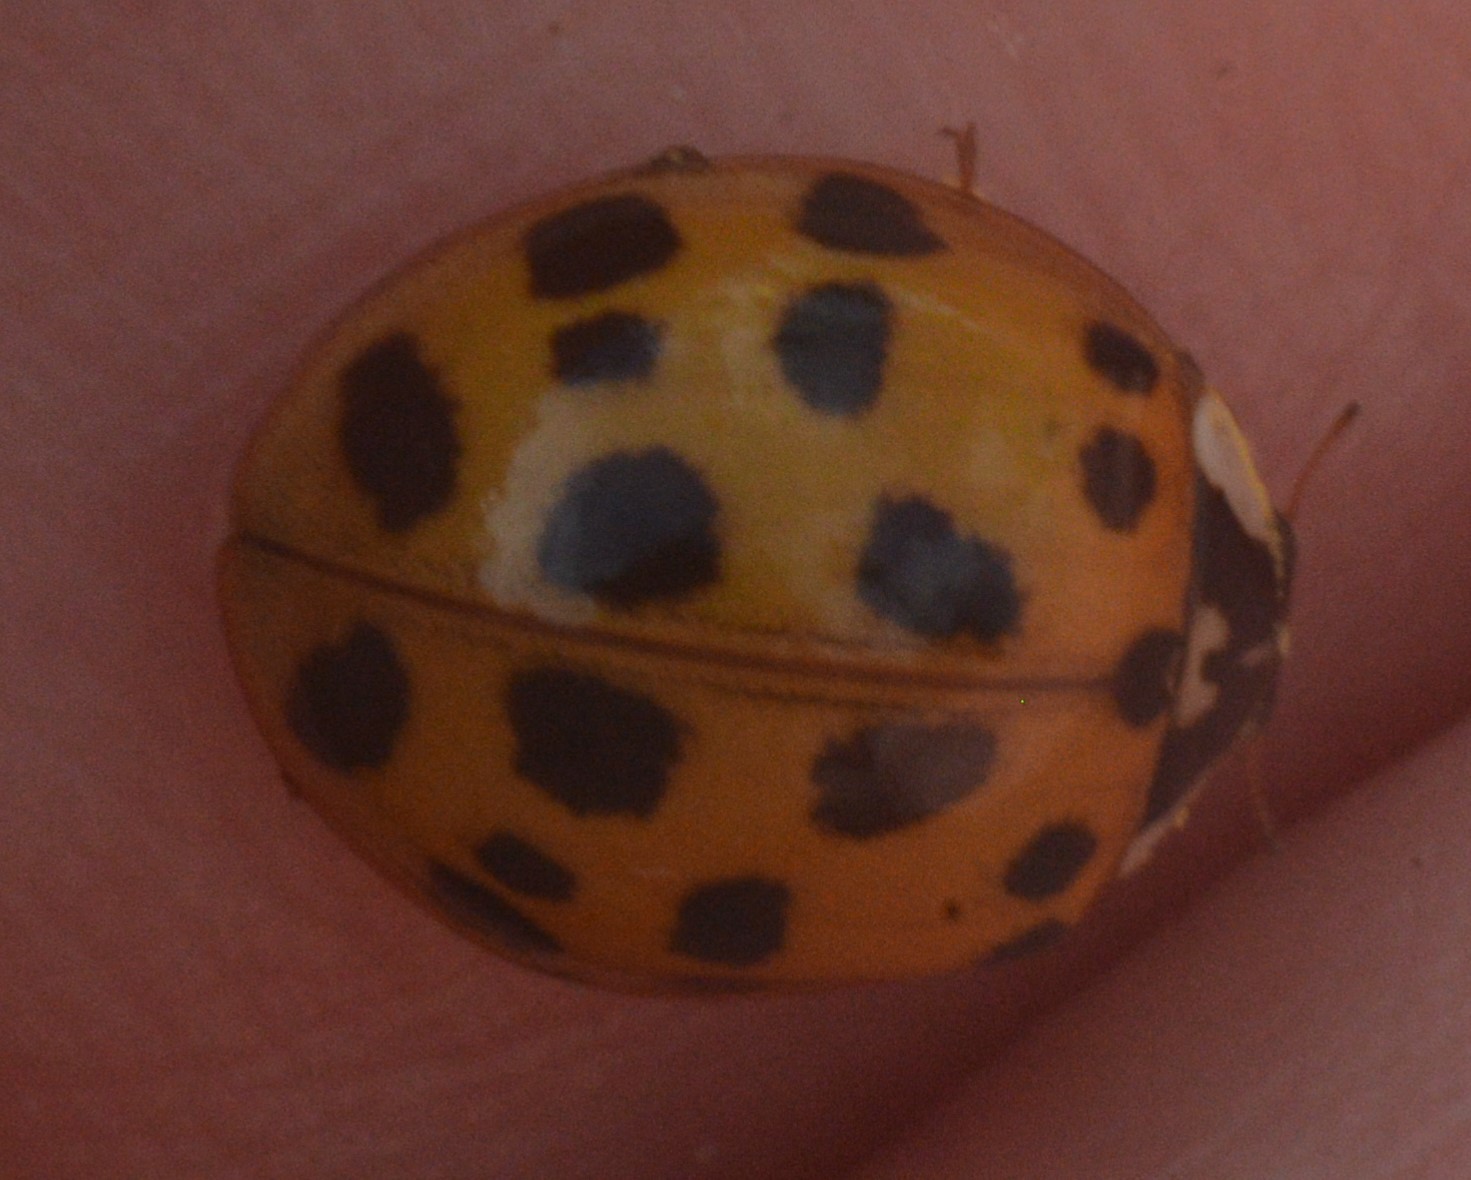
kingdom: Animalia
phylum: Arthropoda
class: Insecta
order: Coleoptera
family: Coccinellidae
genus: Harmonia
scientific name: Harmonia axyridis
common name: Harlequin ladybird
